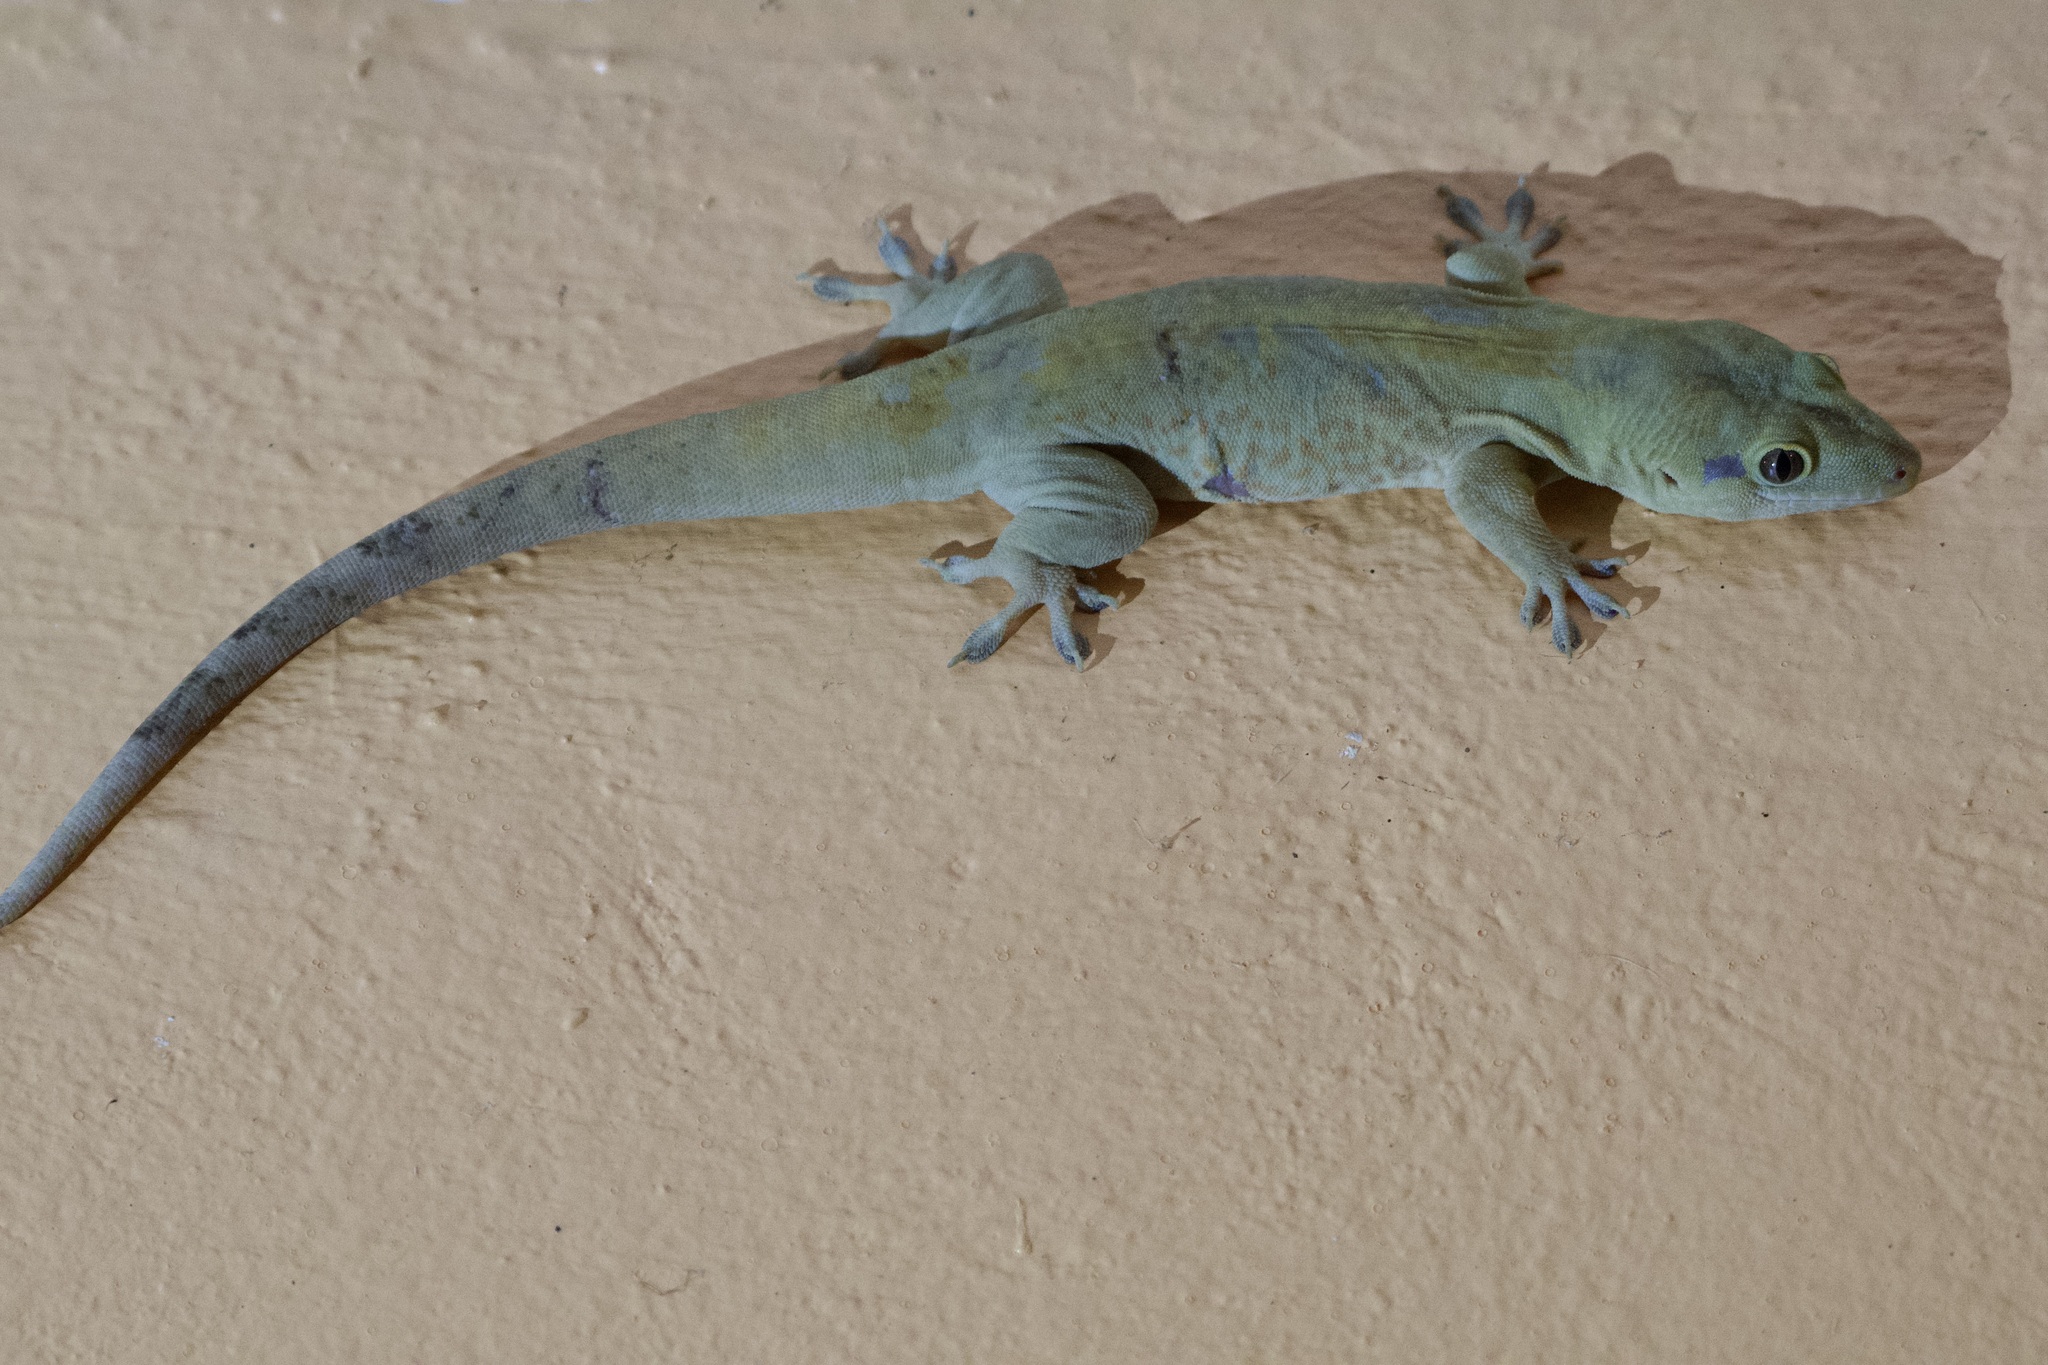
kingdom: Animalia
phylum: Chordata
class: Squamata
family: Sphaerodactylidae
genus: Aristelliger
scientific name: Aristelliger georgeensis
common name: Saint george island gecko
